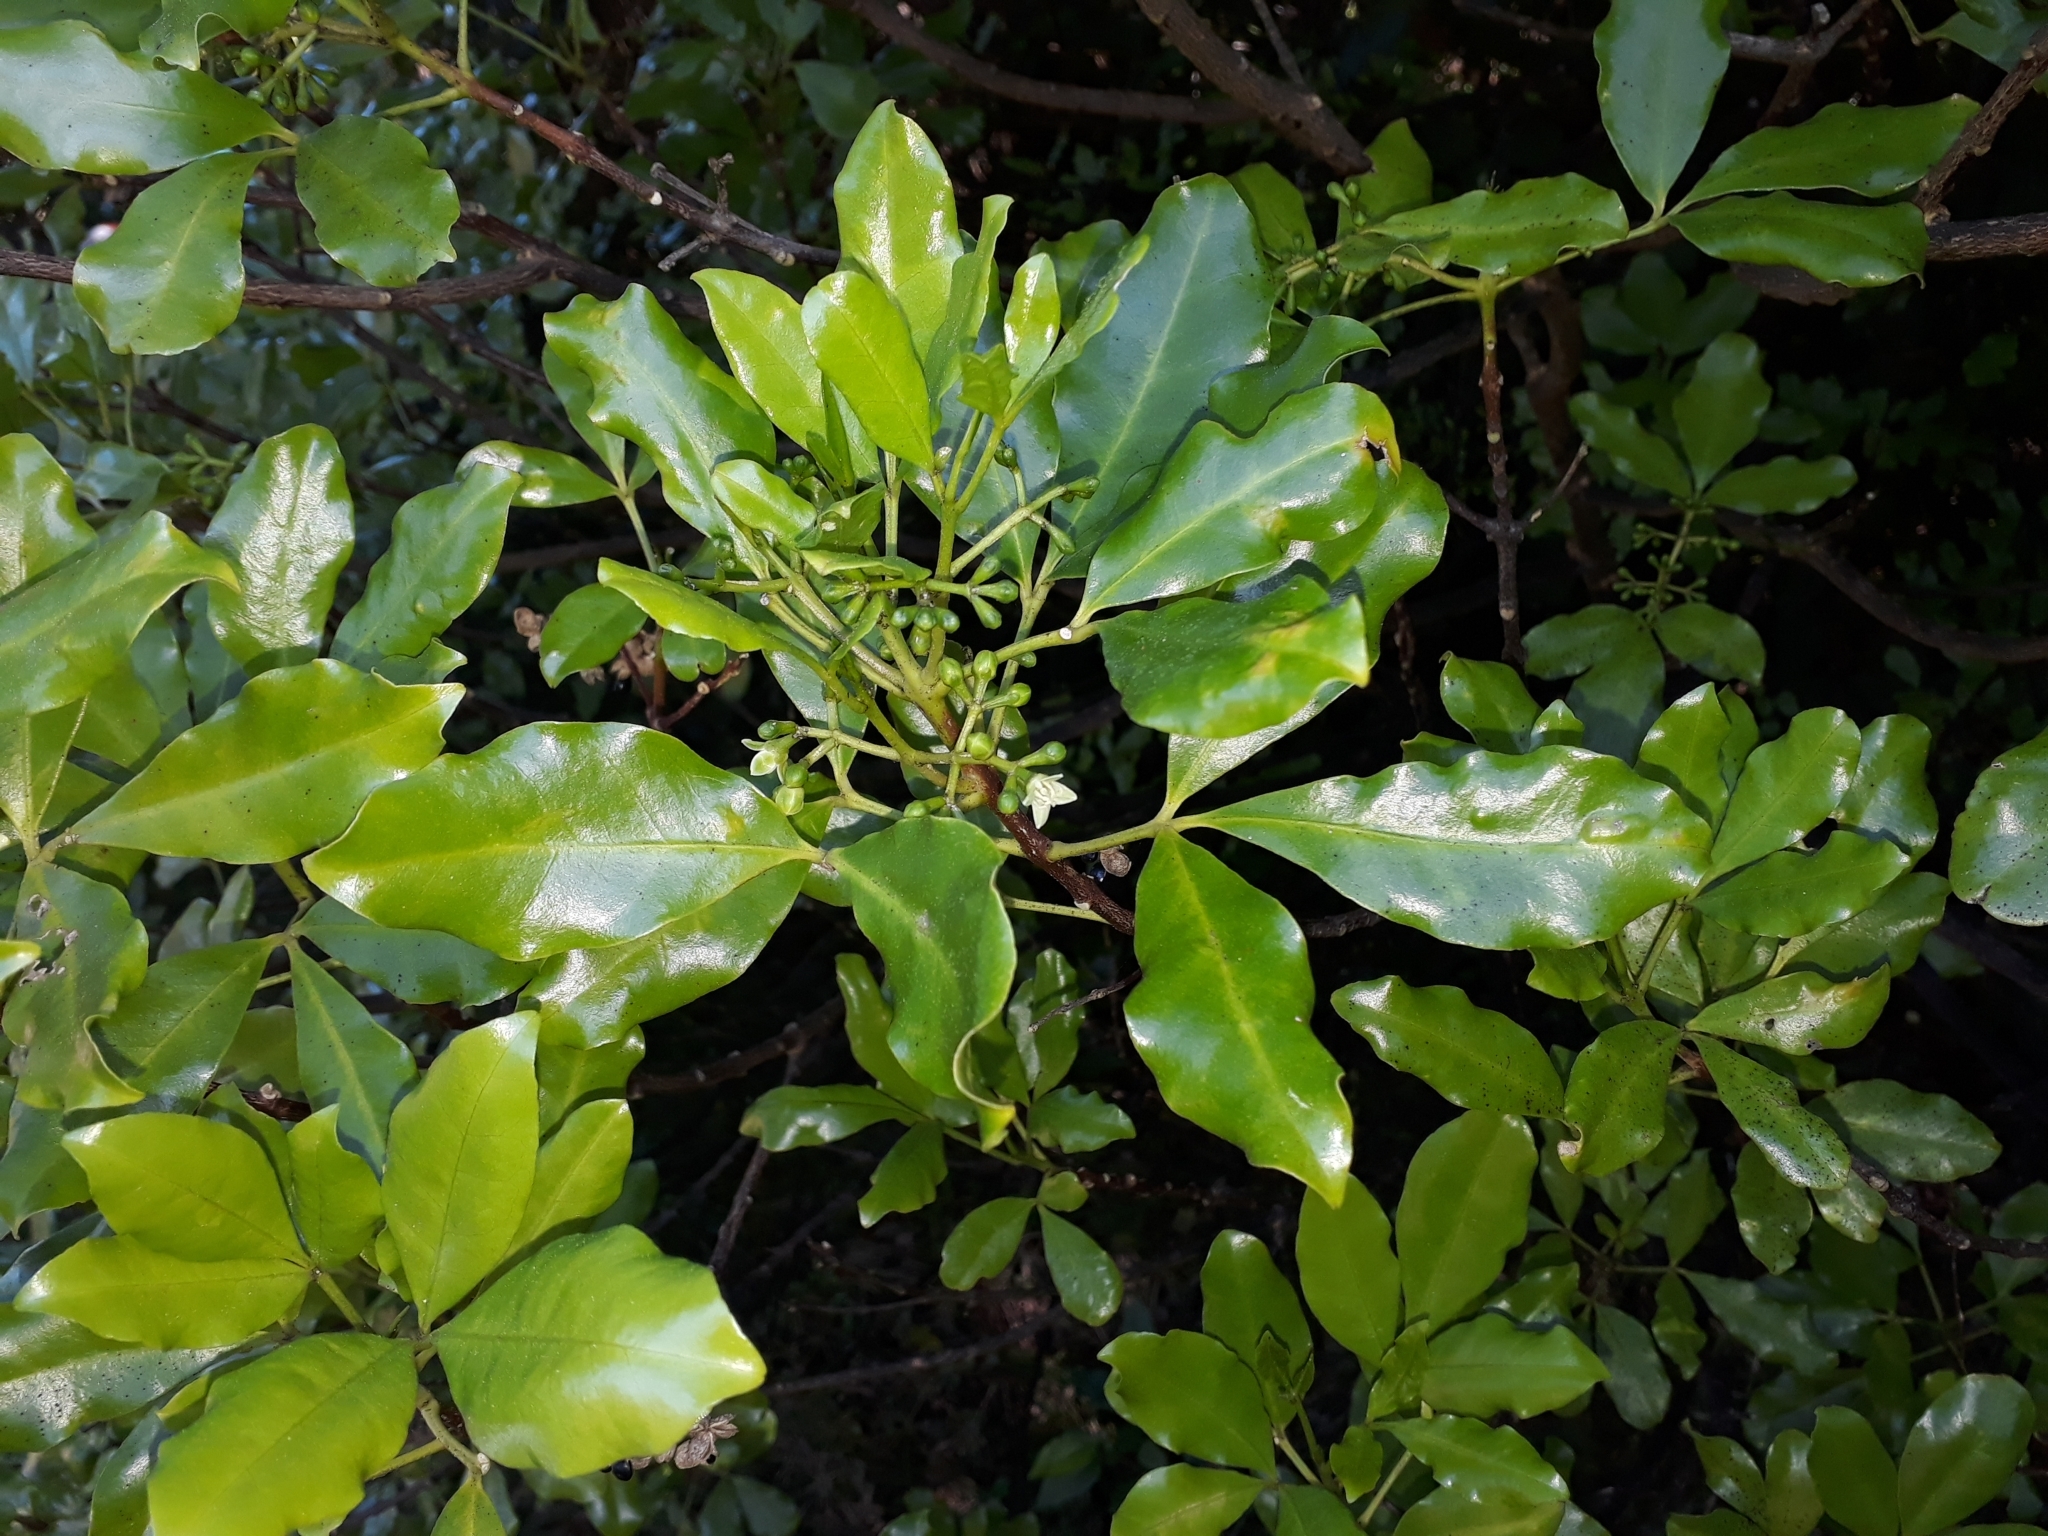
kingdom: Plantae
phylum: Tracheophyta
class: Magnoliopsida
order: Sapindales
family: Rutaceae
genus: Melicope
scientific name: Melicope ternata
